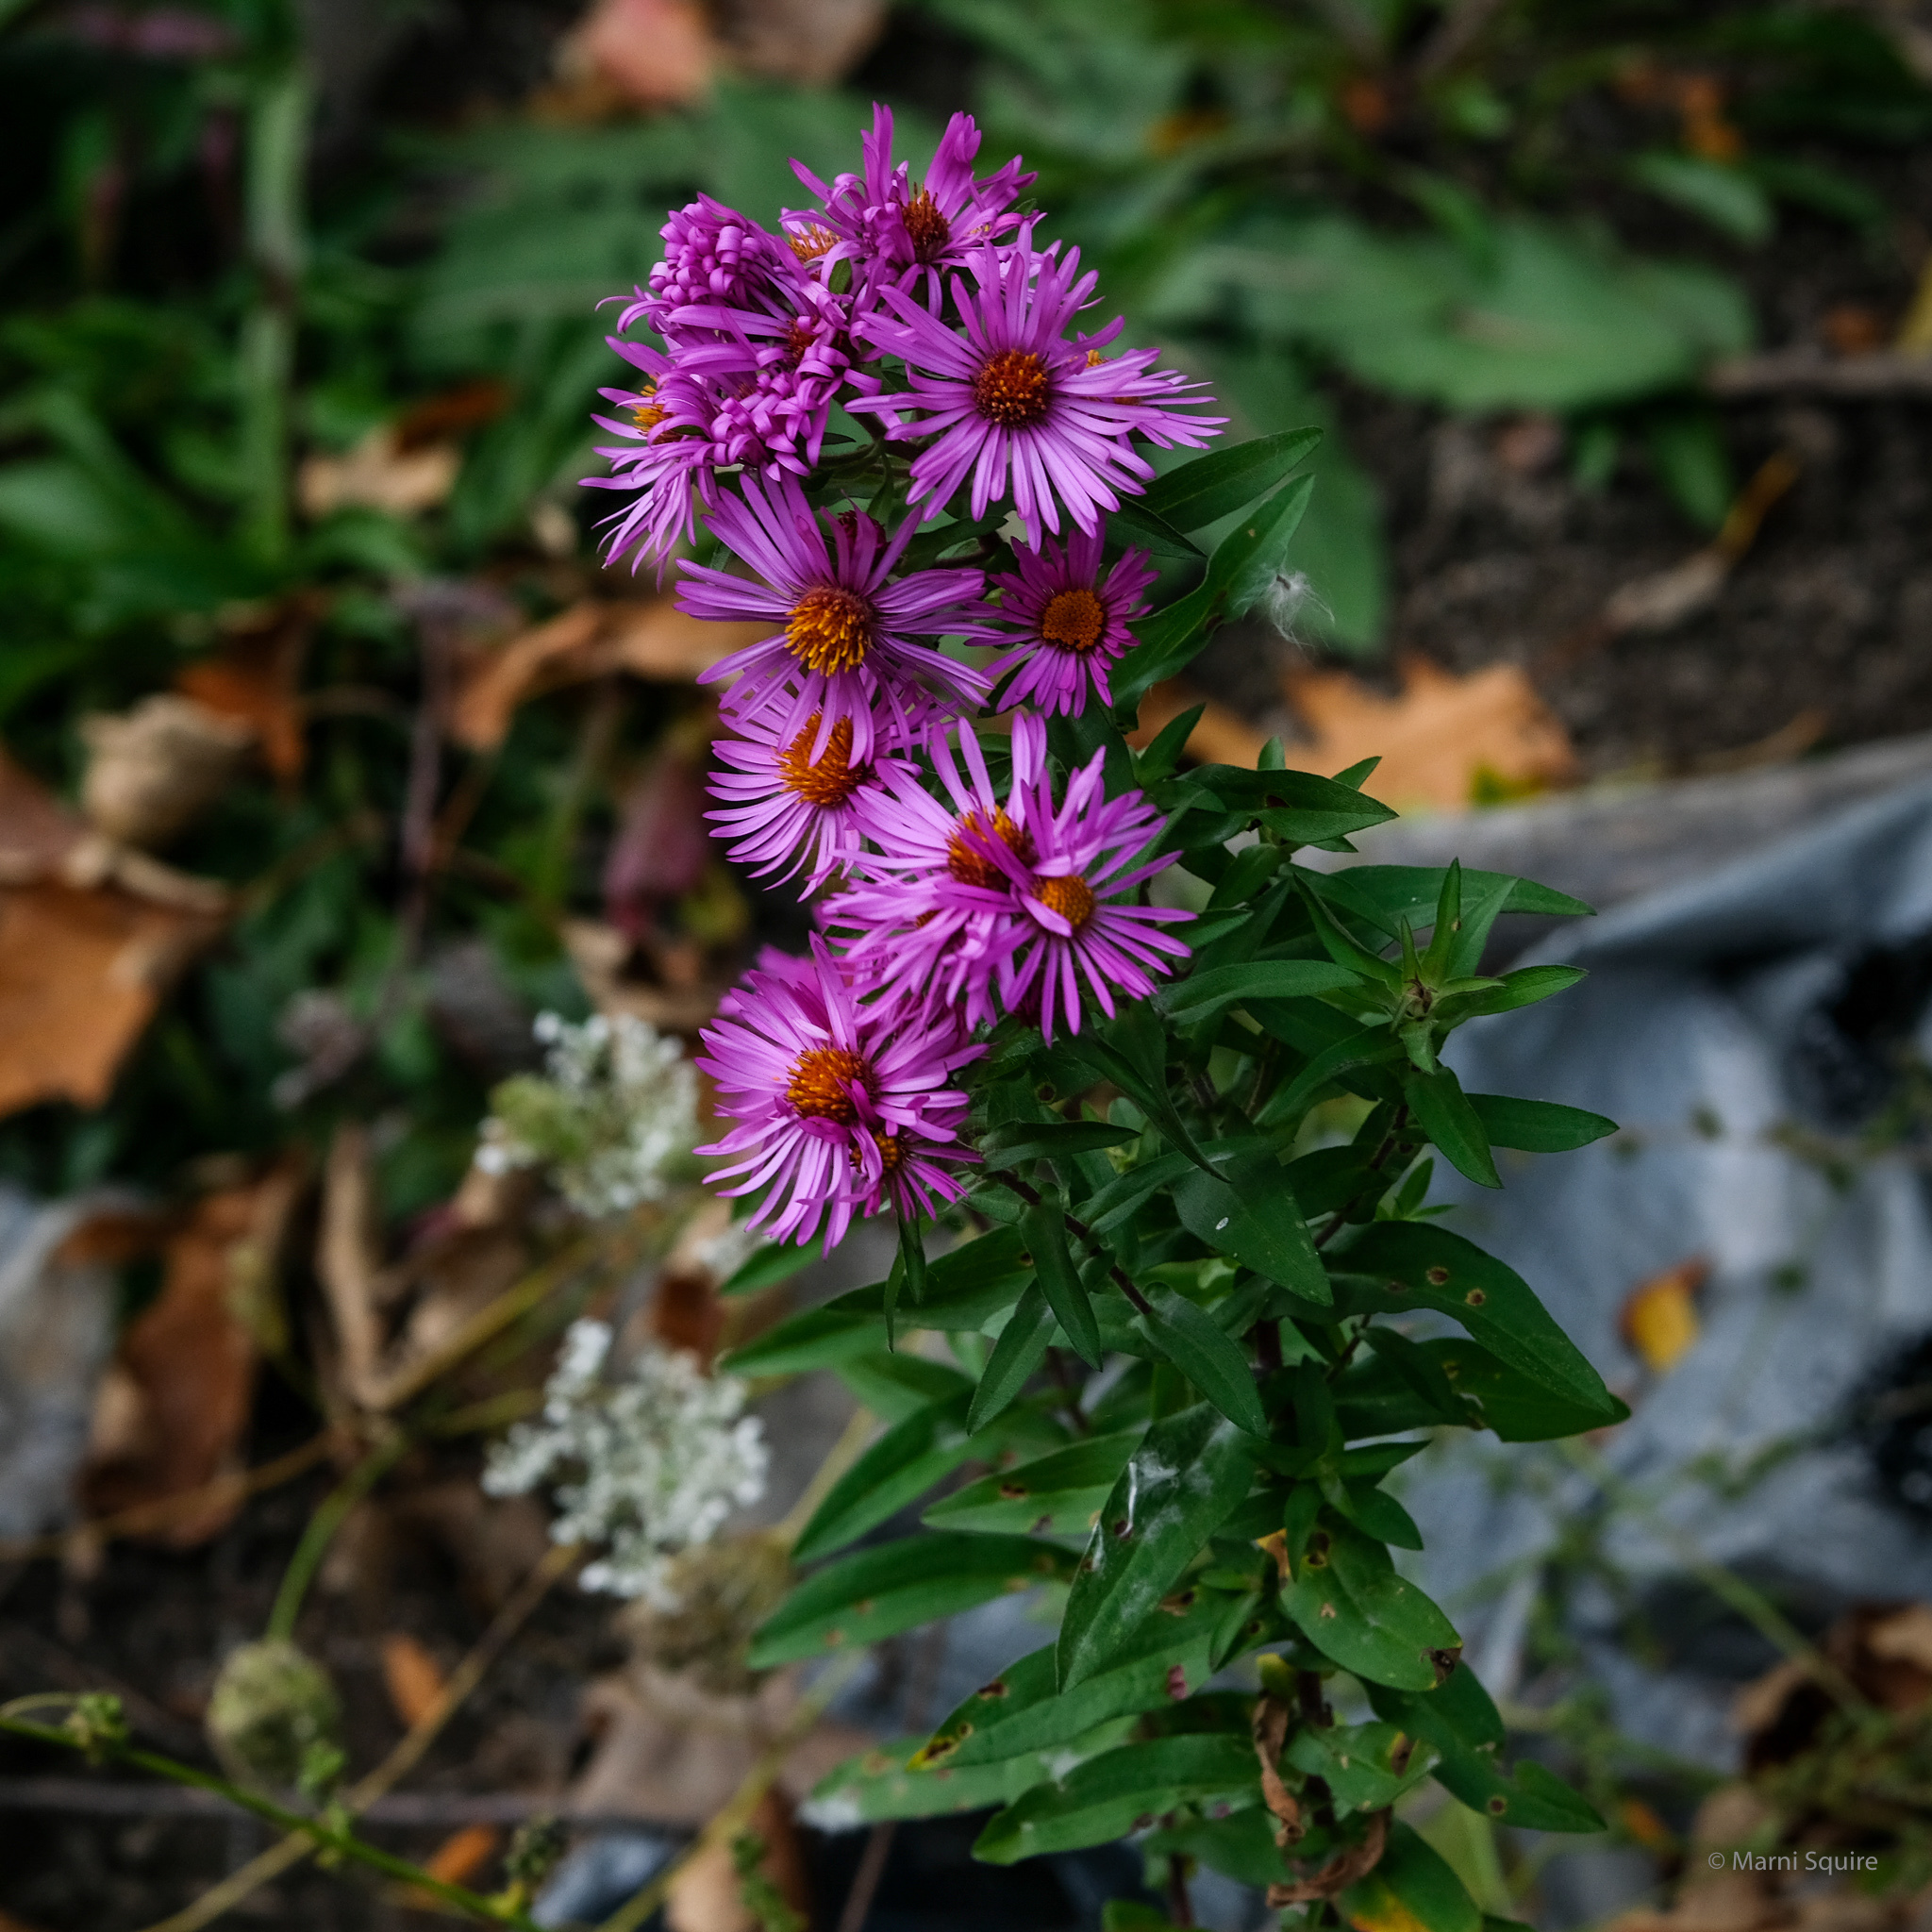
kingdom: Plantae
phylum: Tracheophyta
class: Magnoliopsida
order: Asterales
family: Asteraceae
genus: Symphyotrichum
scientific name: Symphyotrichum novae-angliae
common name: Michaelmas daisy
